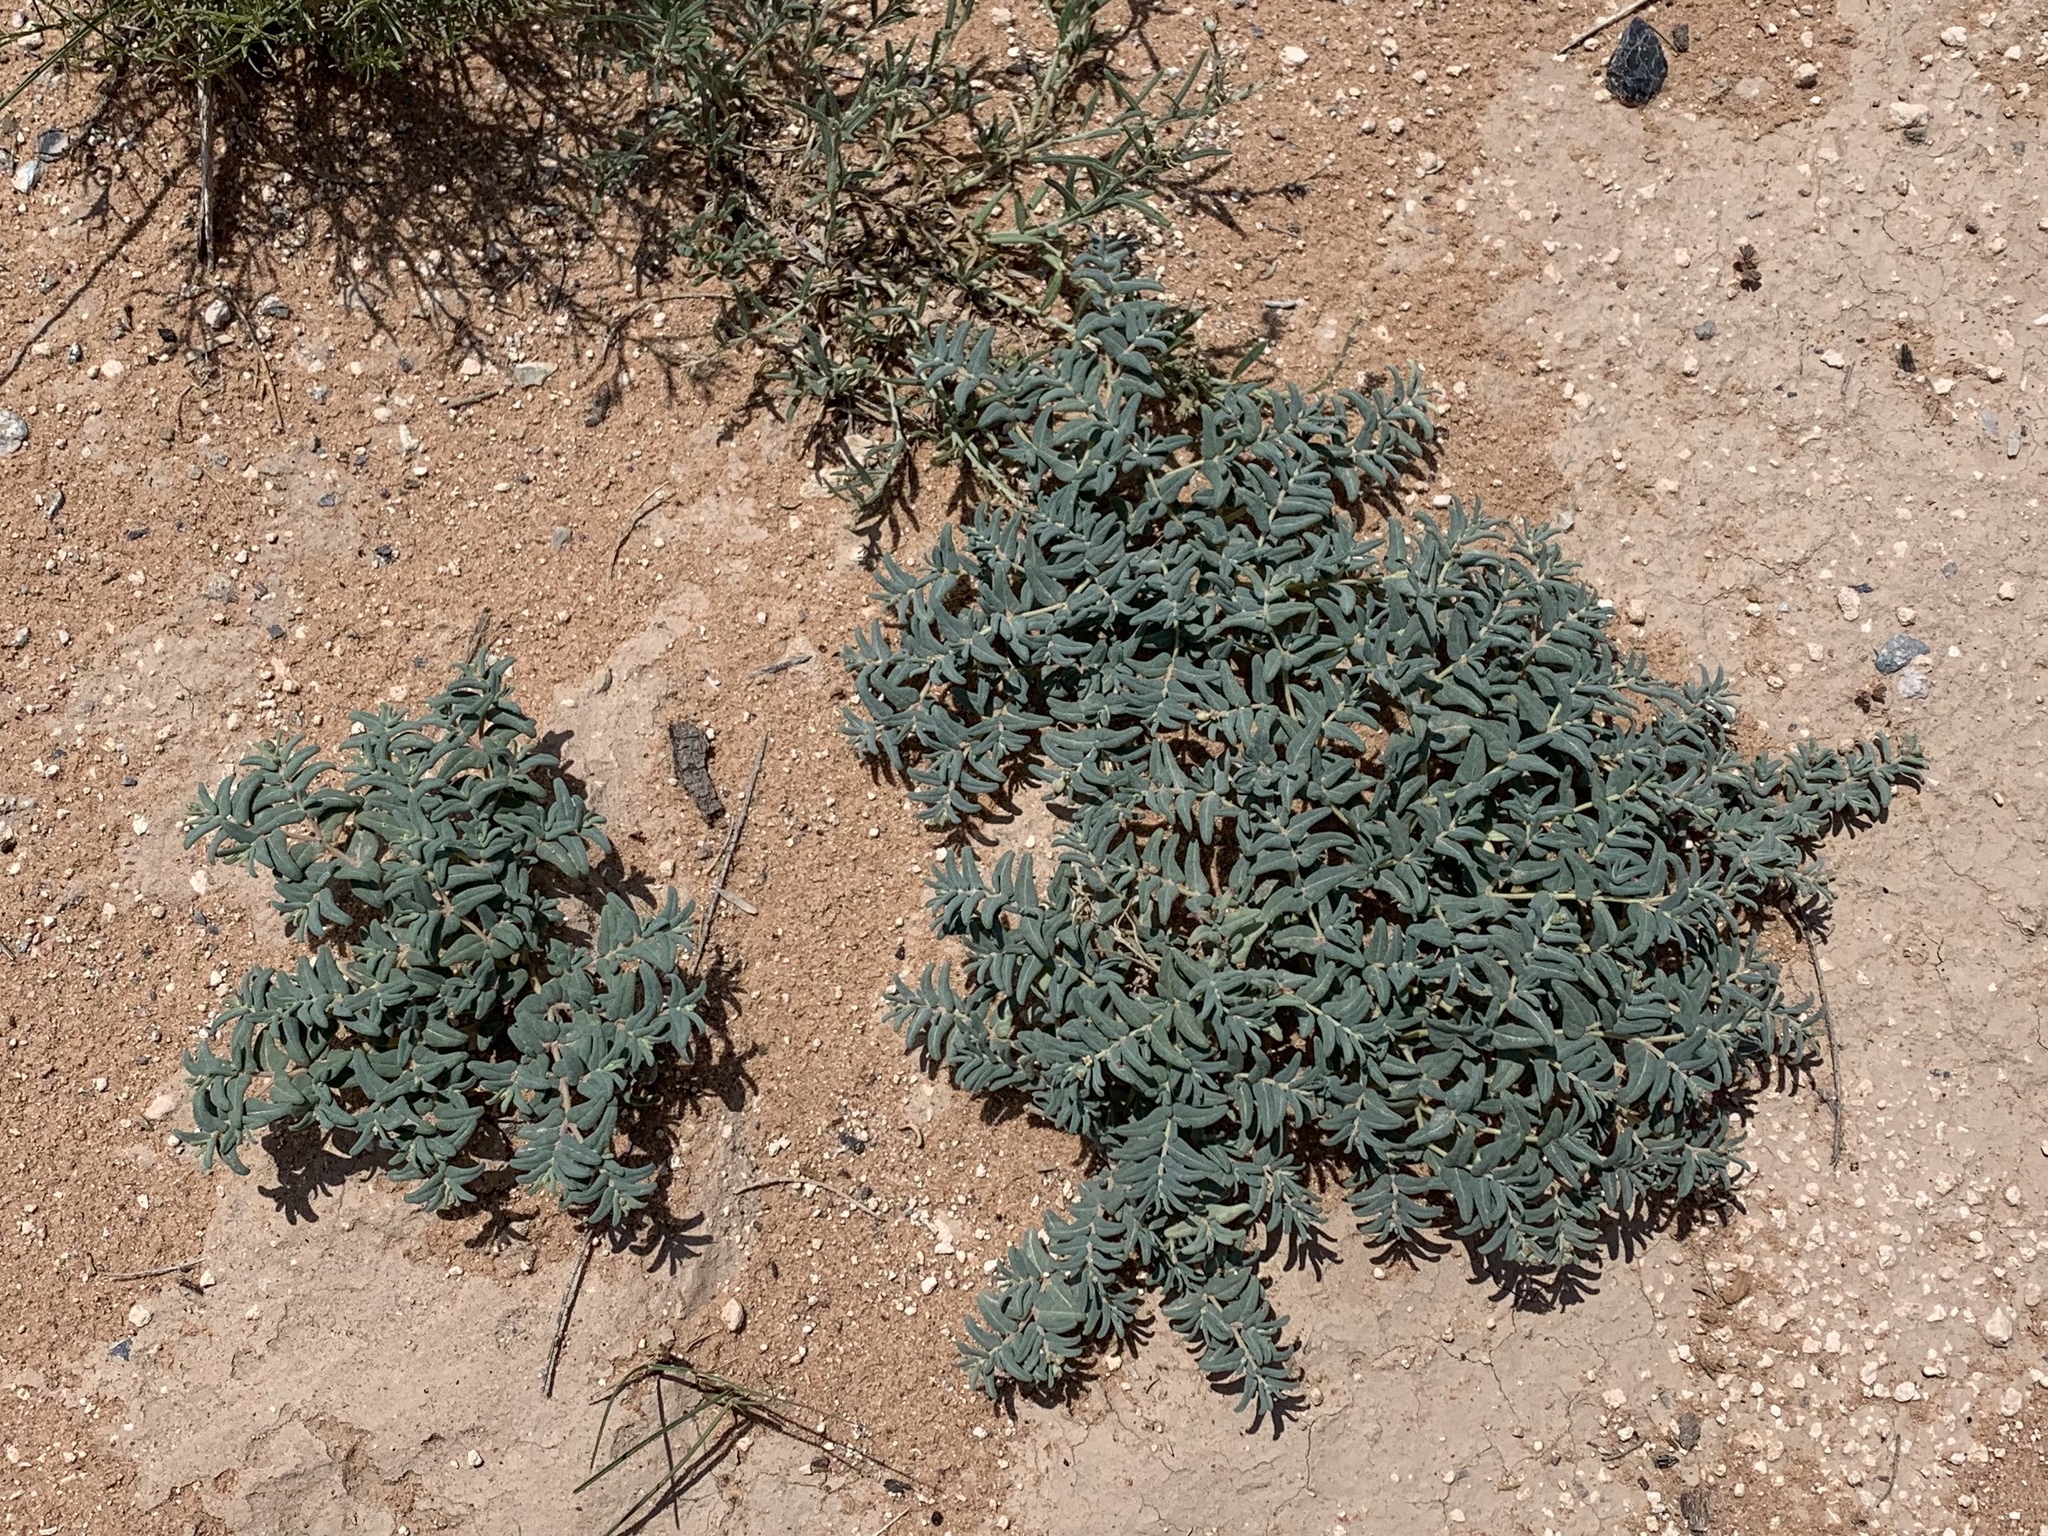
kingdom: Plantae
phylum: Tracheophyta
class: Magnoliopsida
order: Malpighiales
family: Euphorbiaceae
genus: Euphorbia
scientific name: Euphorbia lata
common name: Hoary euphorbia
